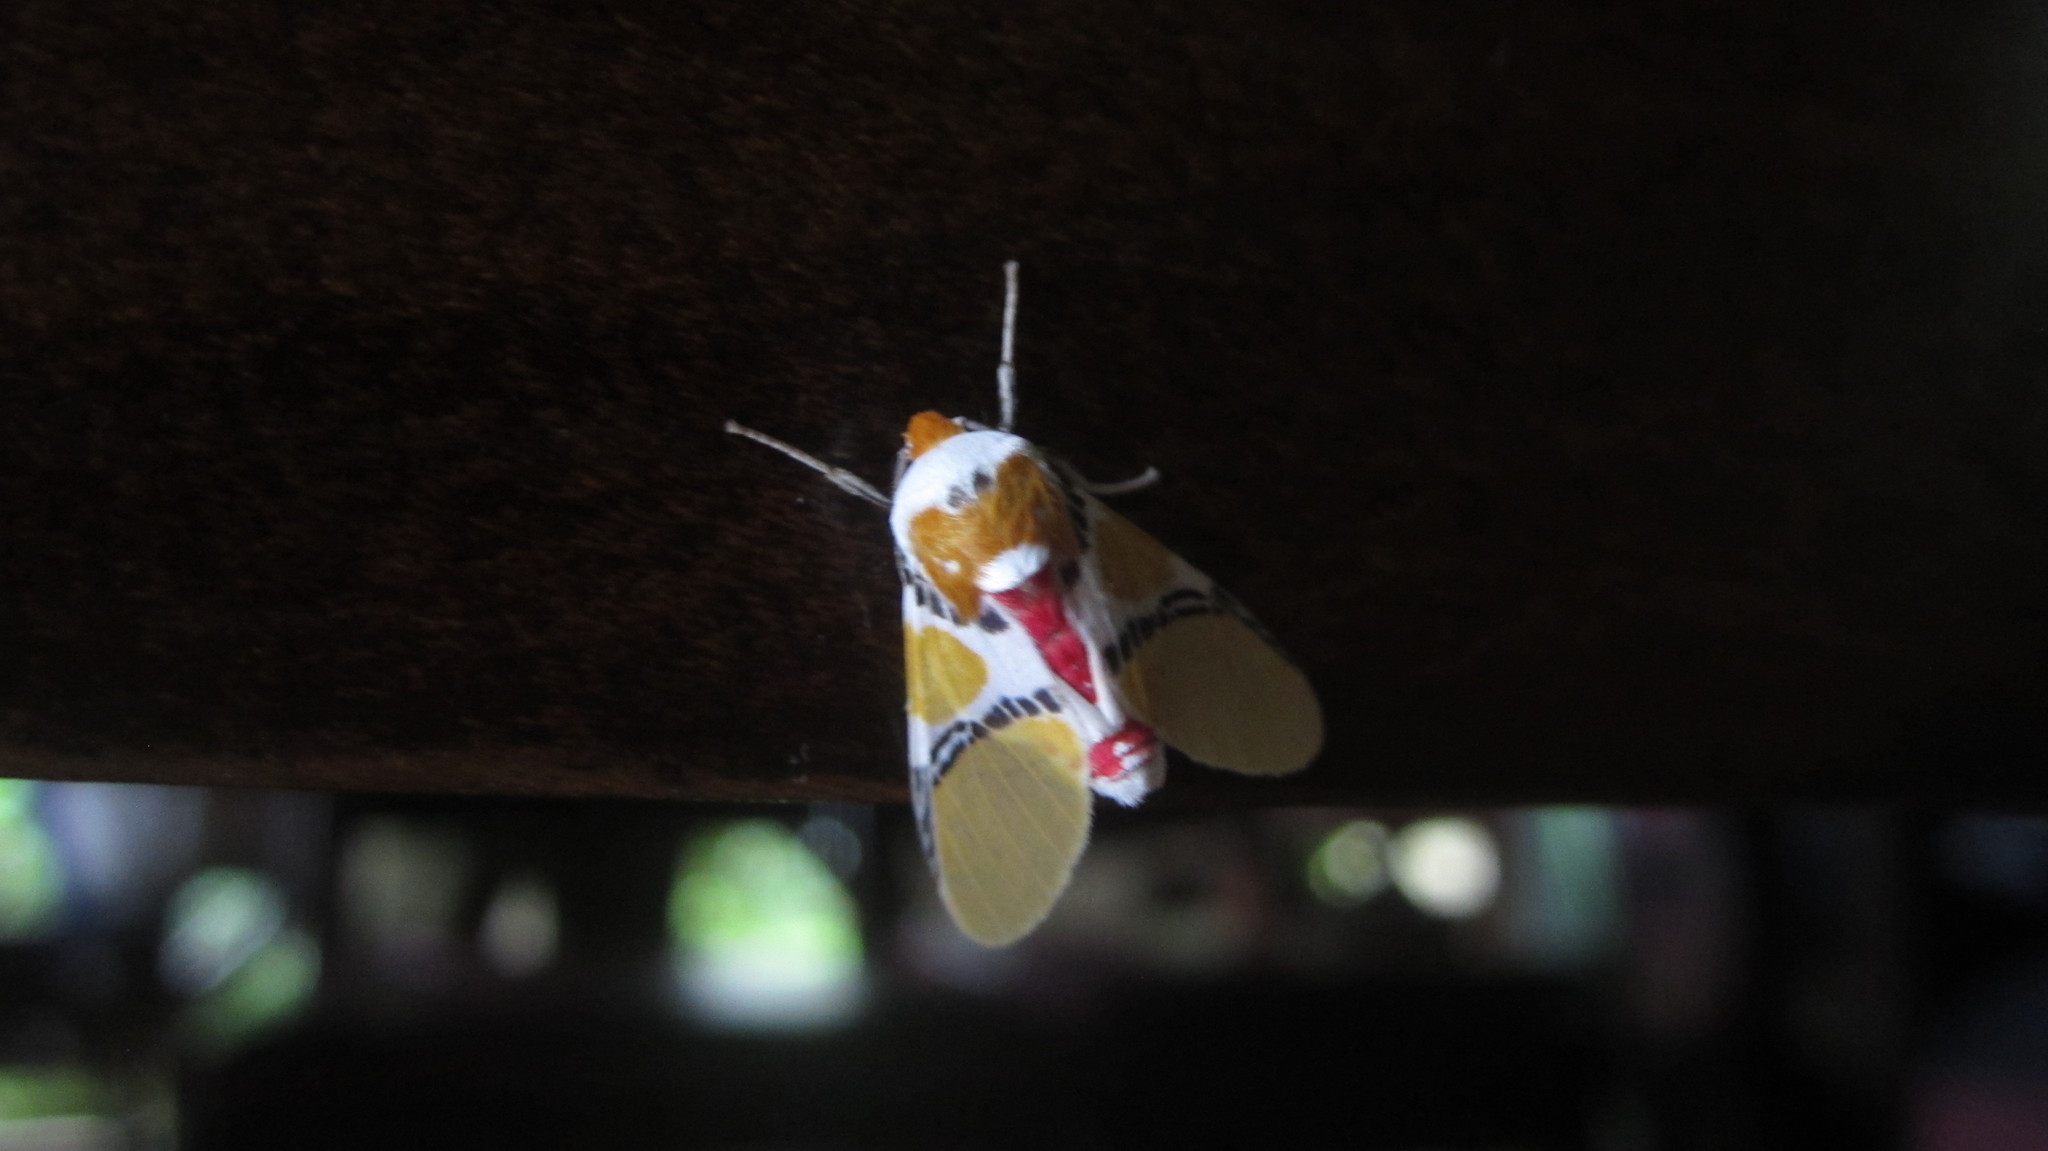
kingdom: Animalia
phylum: Arthropoda
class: Insecta
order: Lepidoptera
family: Erebidae
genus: Idalus
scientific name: Idalus critheis
